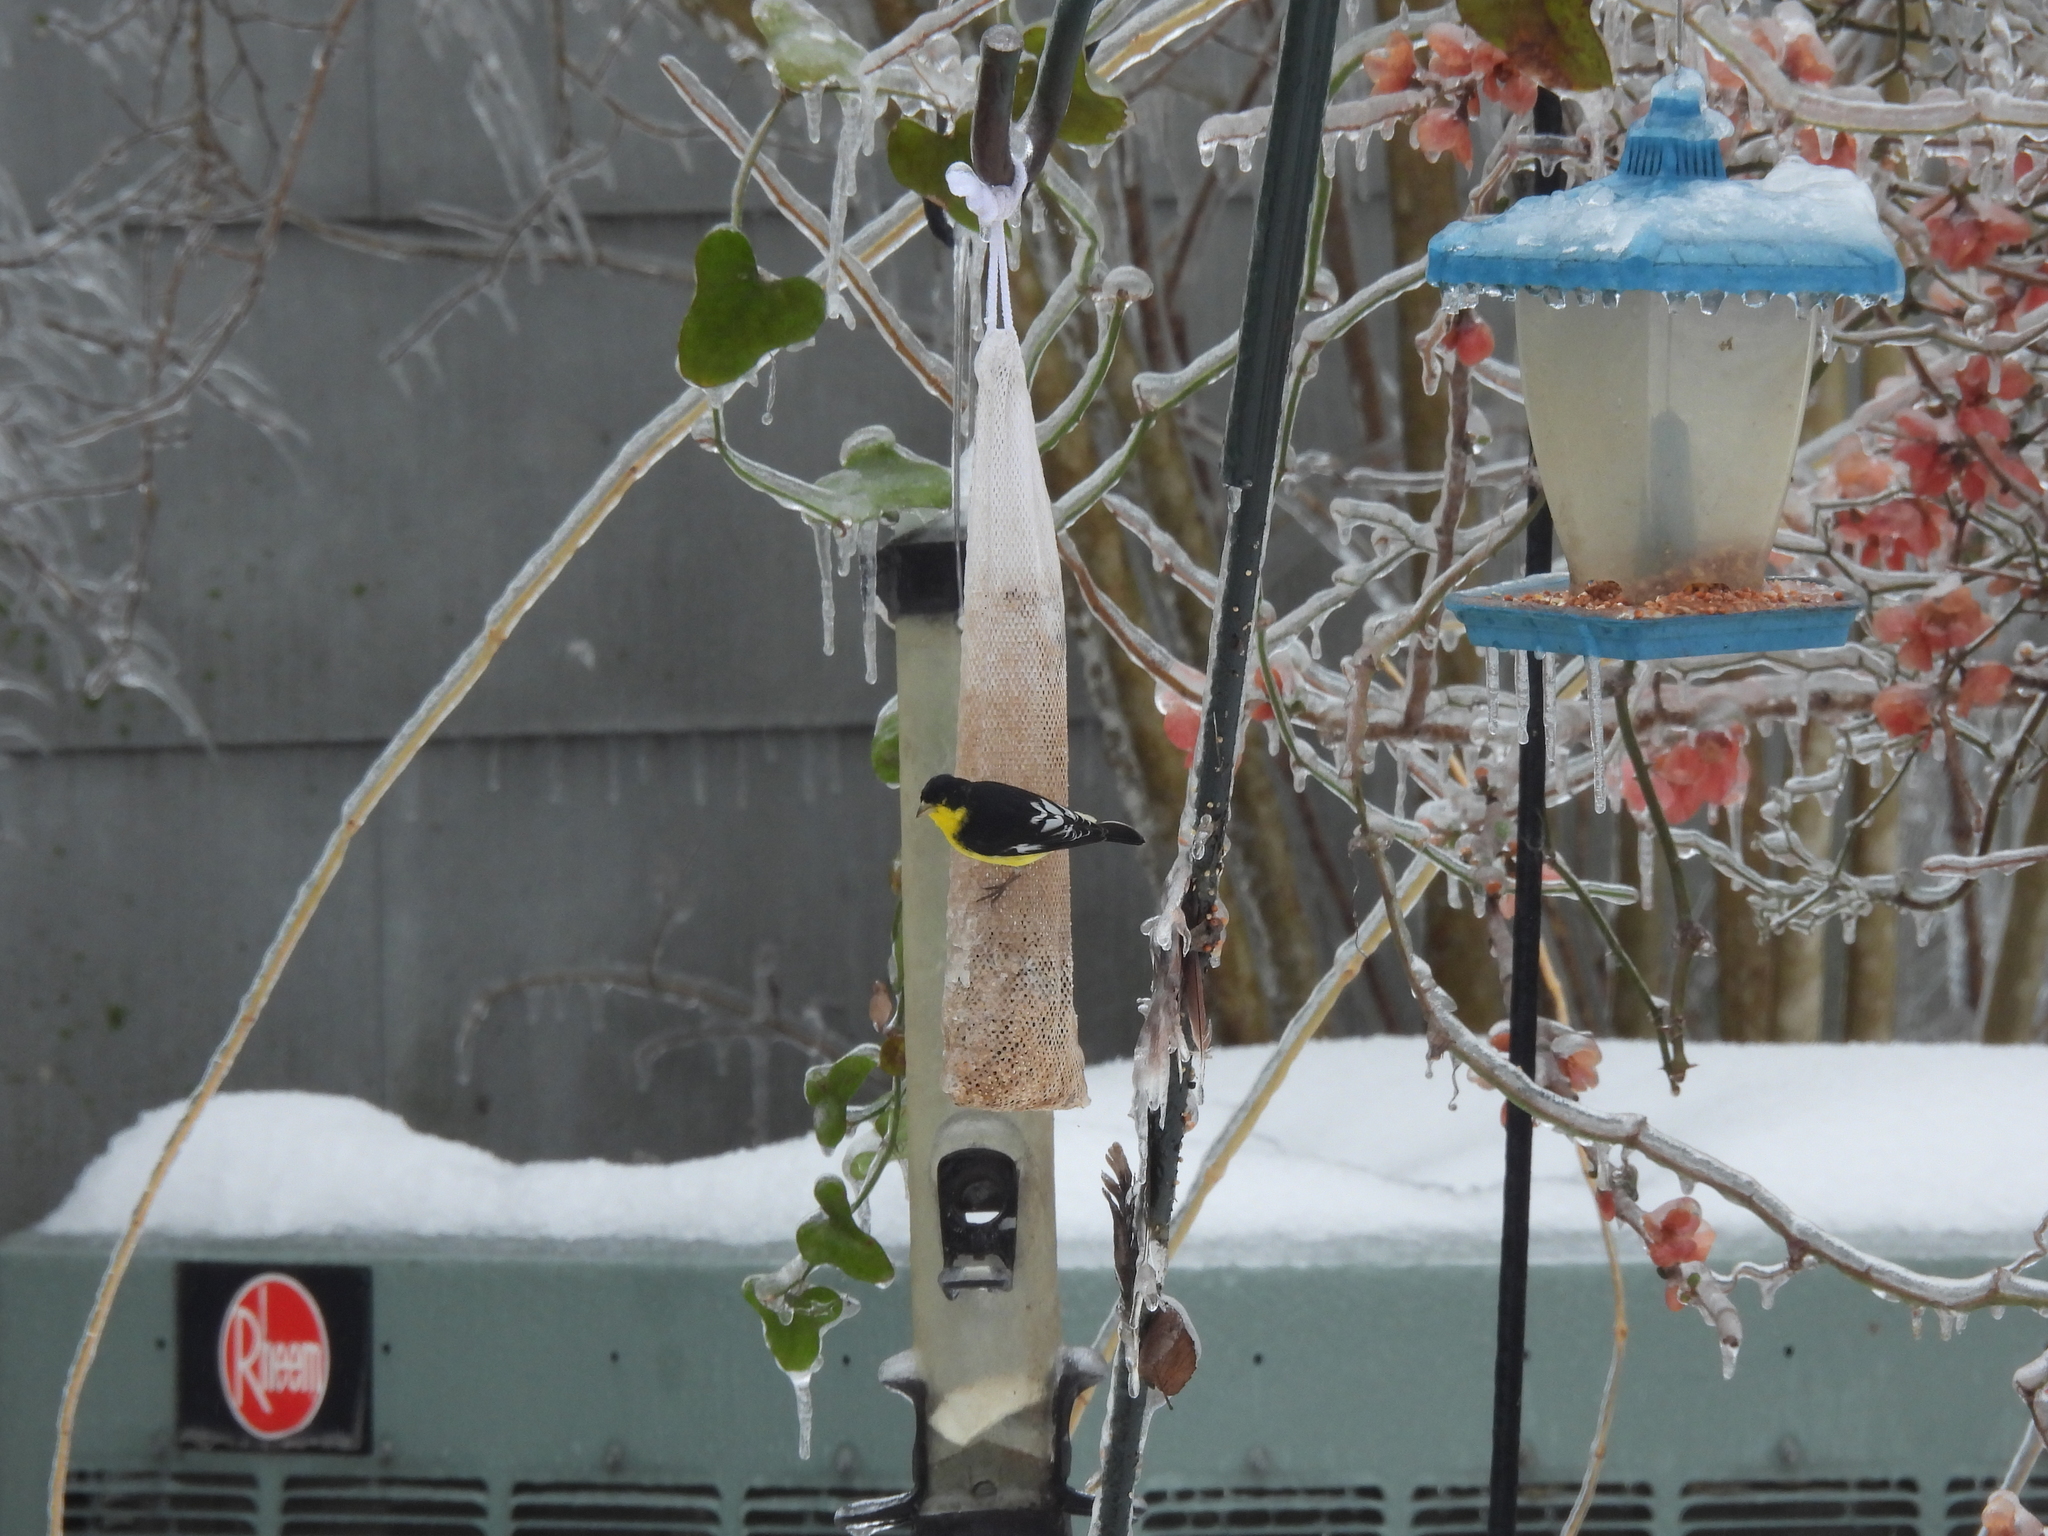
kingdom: Animalia
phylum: Chordata
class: Aves
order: Passeriformes
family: Fringillidae
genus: Spinus
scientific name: Spinus psaltria
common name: Lesser goldfinch
